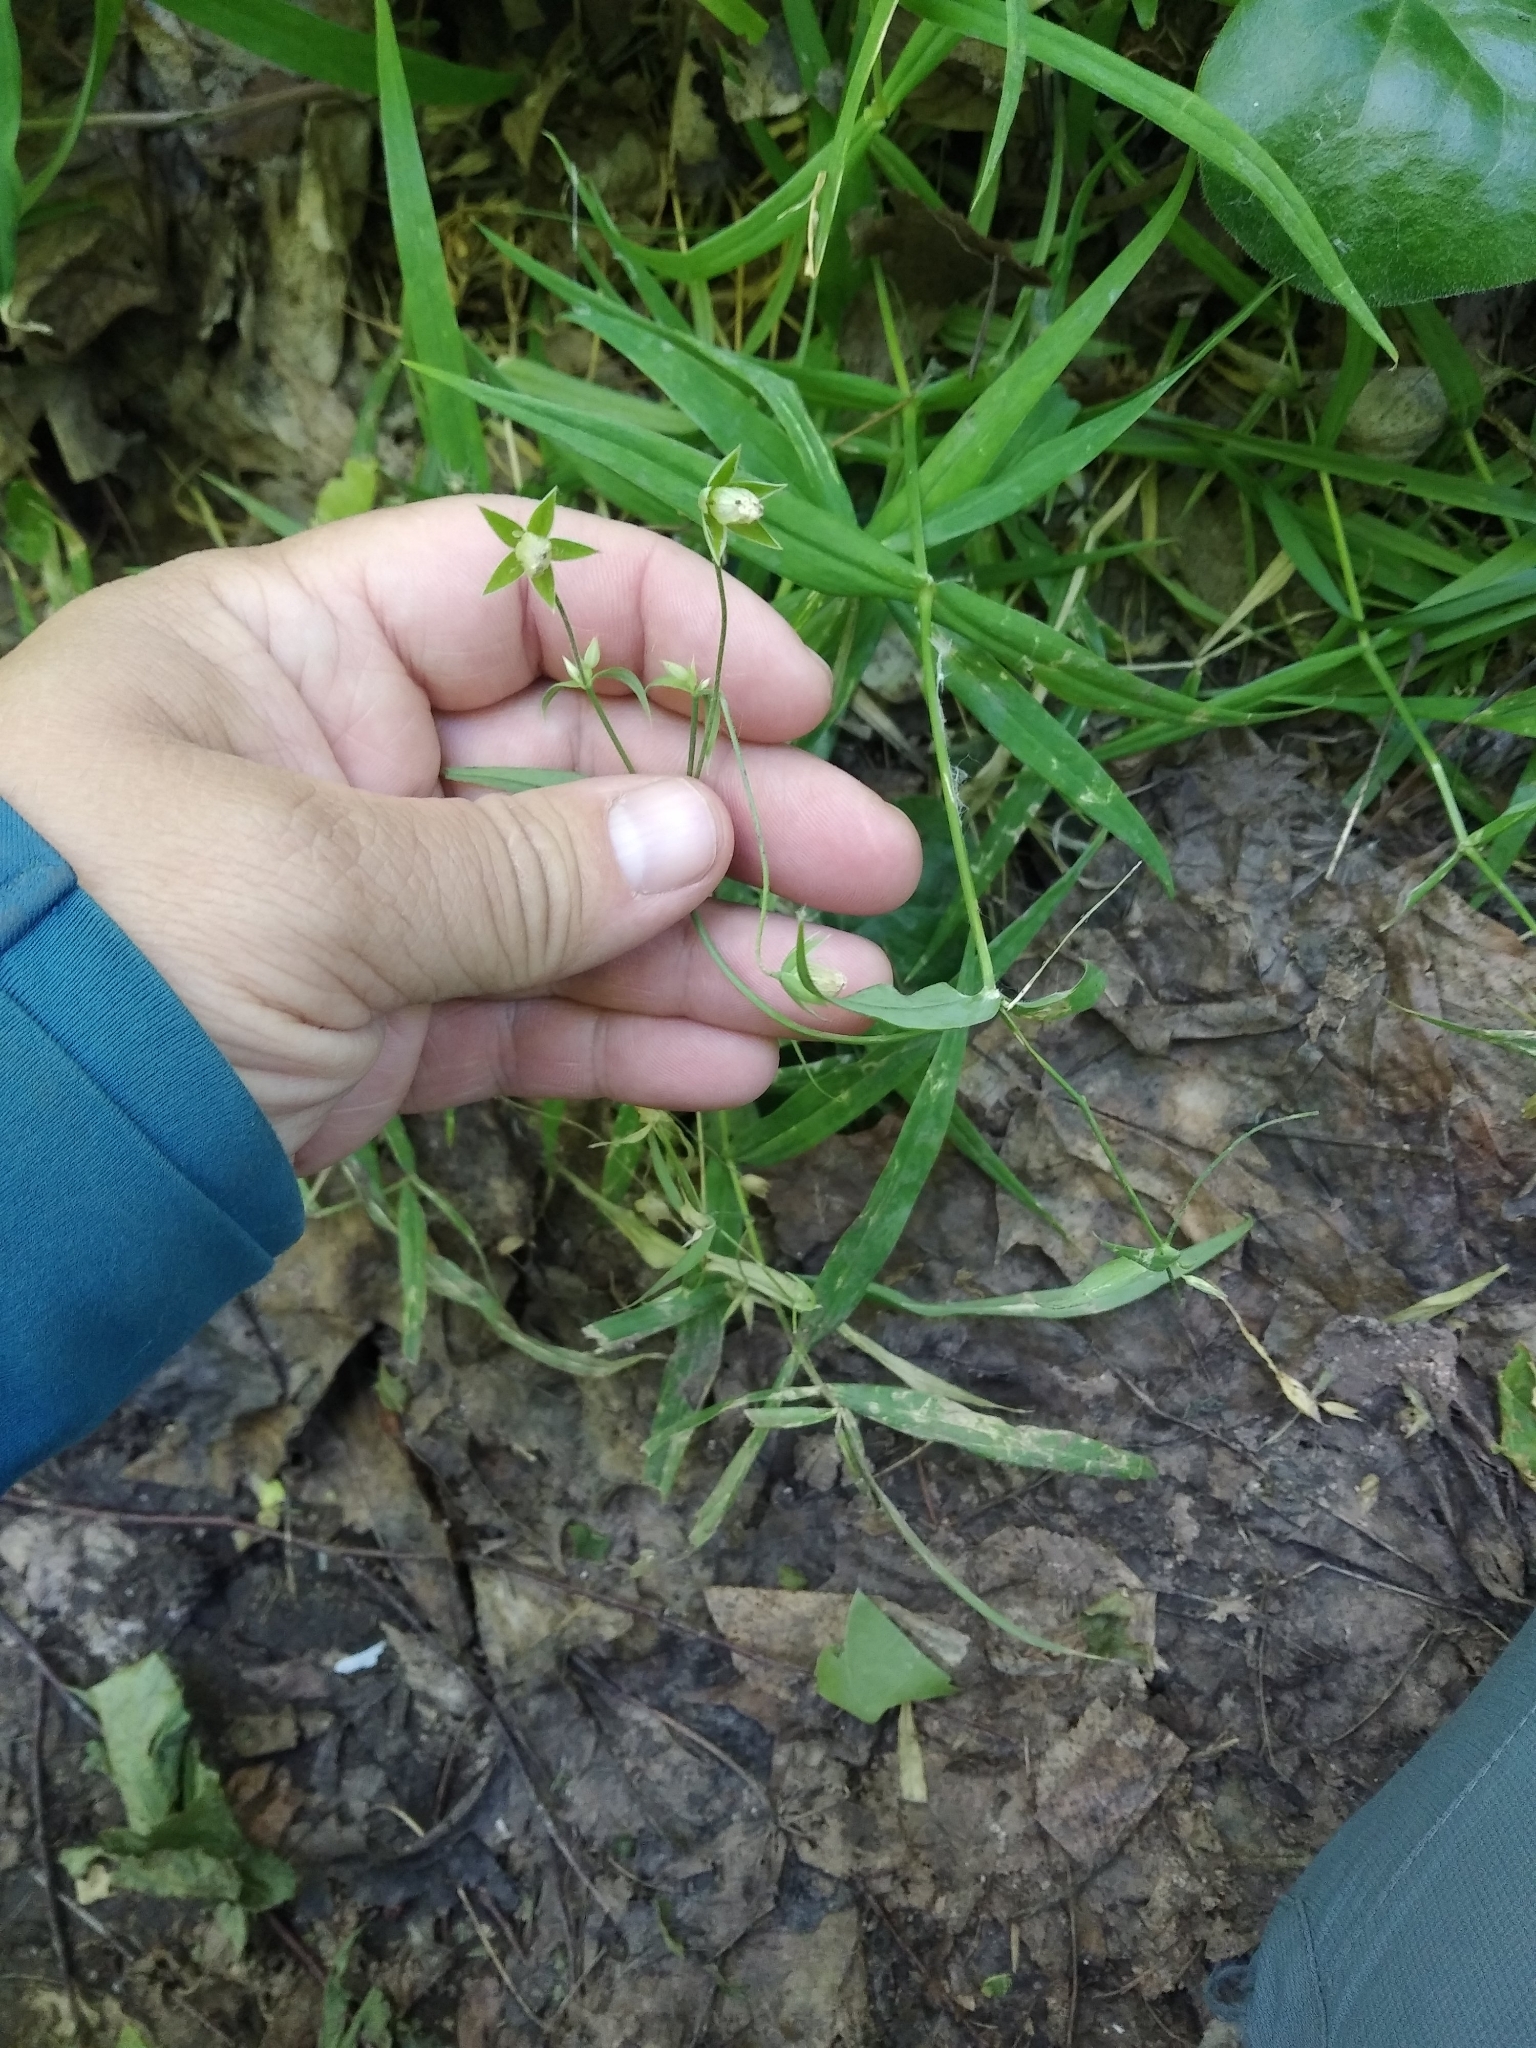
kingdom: Plantae
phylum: Tracheophyta
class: Magnoliopsida
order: Caryophyllales
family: Caryophyllaceae
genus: Rabelera
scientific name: Rabelera holostea
